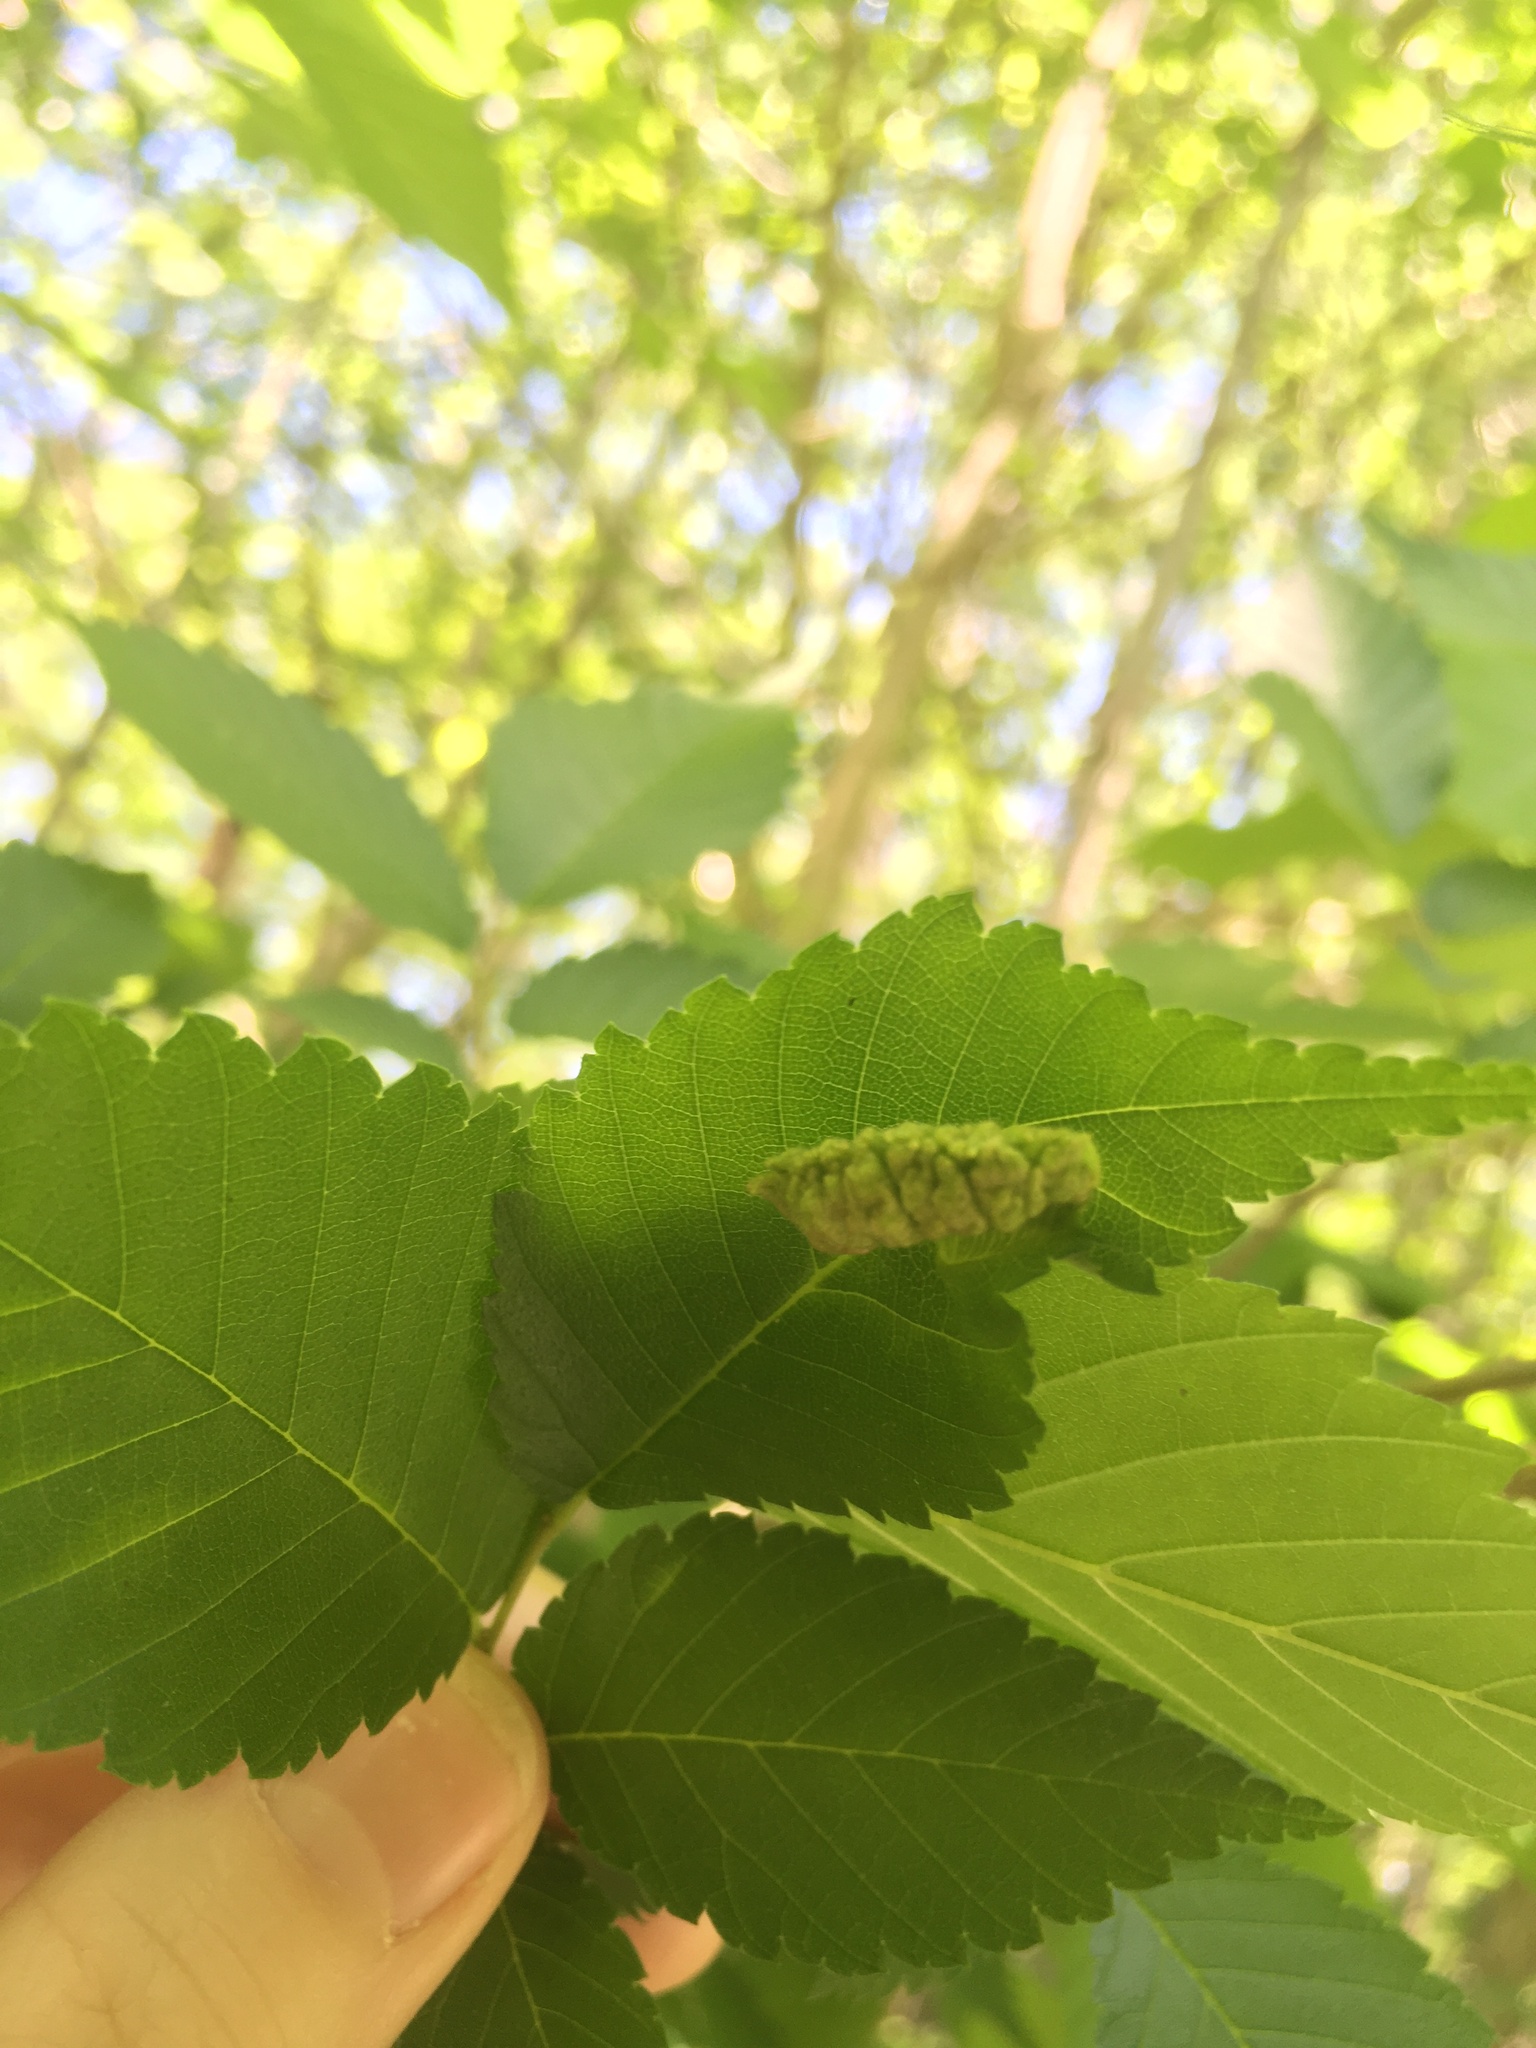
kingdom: Animalia
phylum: Arthropoda
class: Insecta
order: Hemiptera
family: Aphididae
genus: Colopha
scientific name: Colopha ulmicola
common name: Elm cockscombgall aphid
